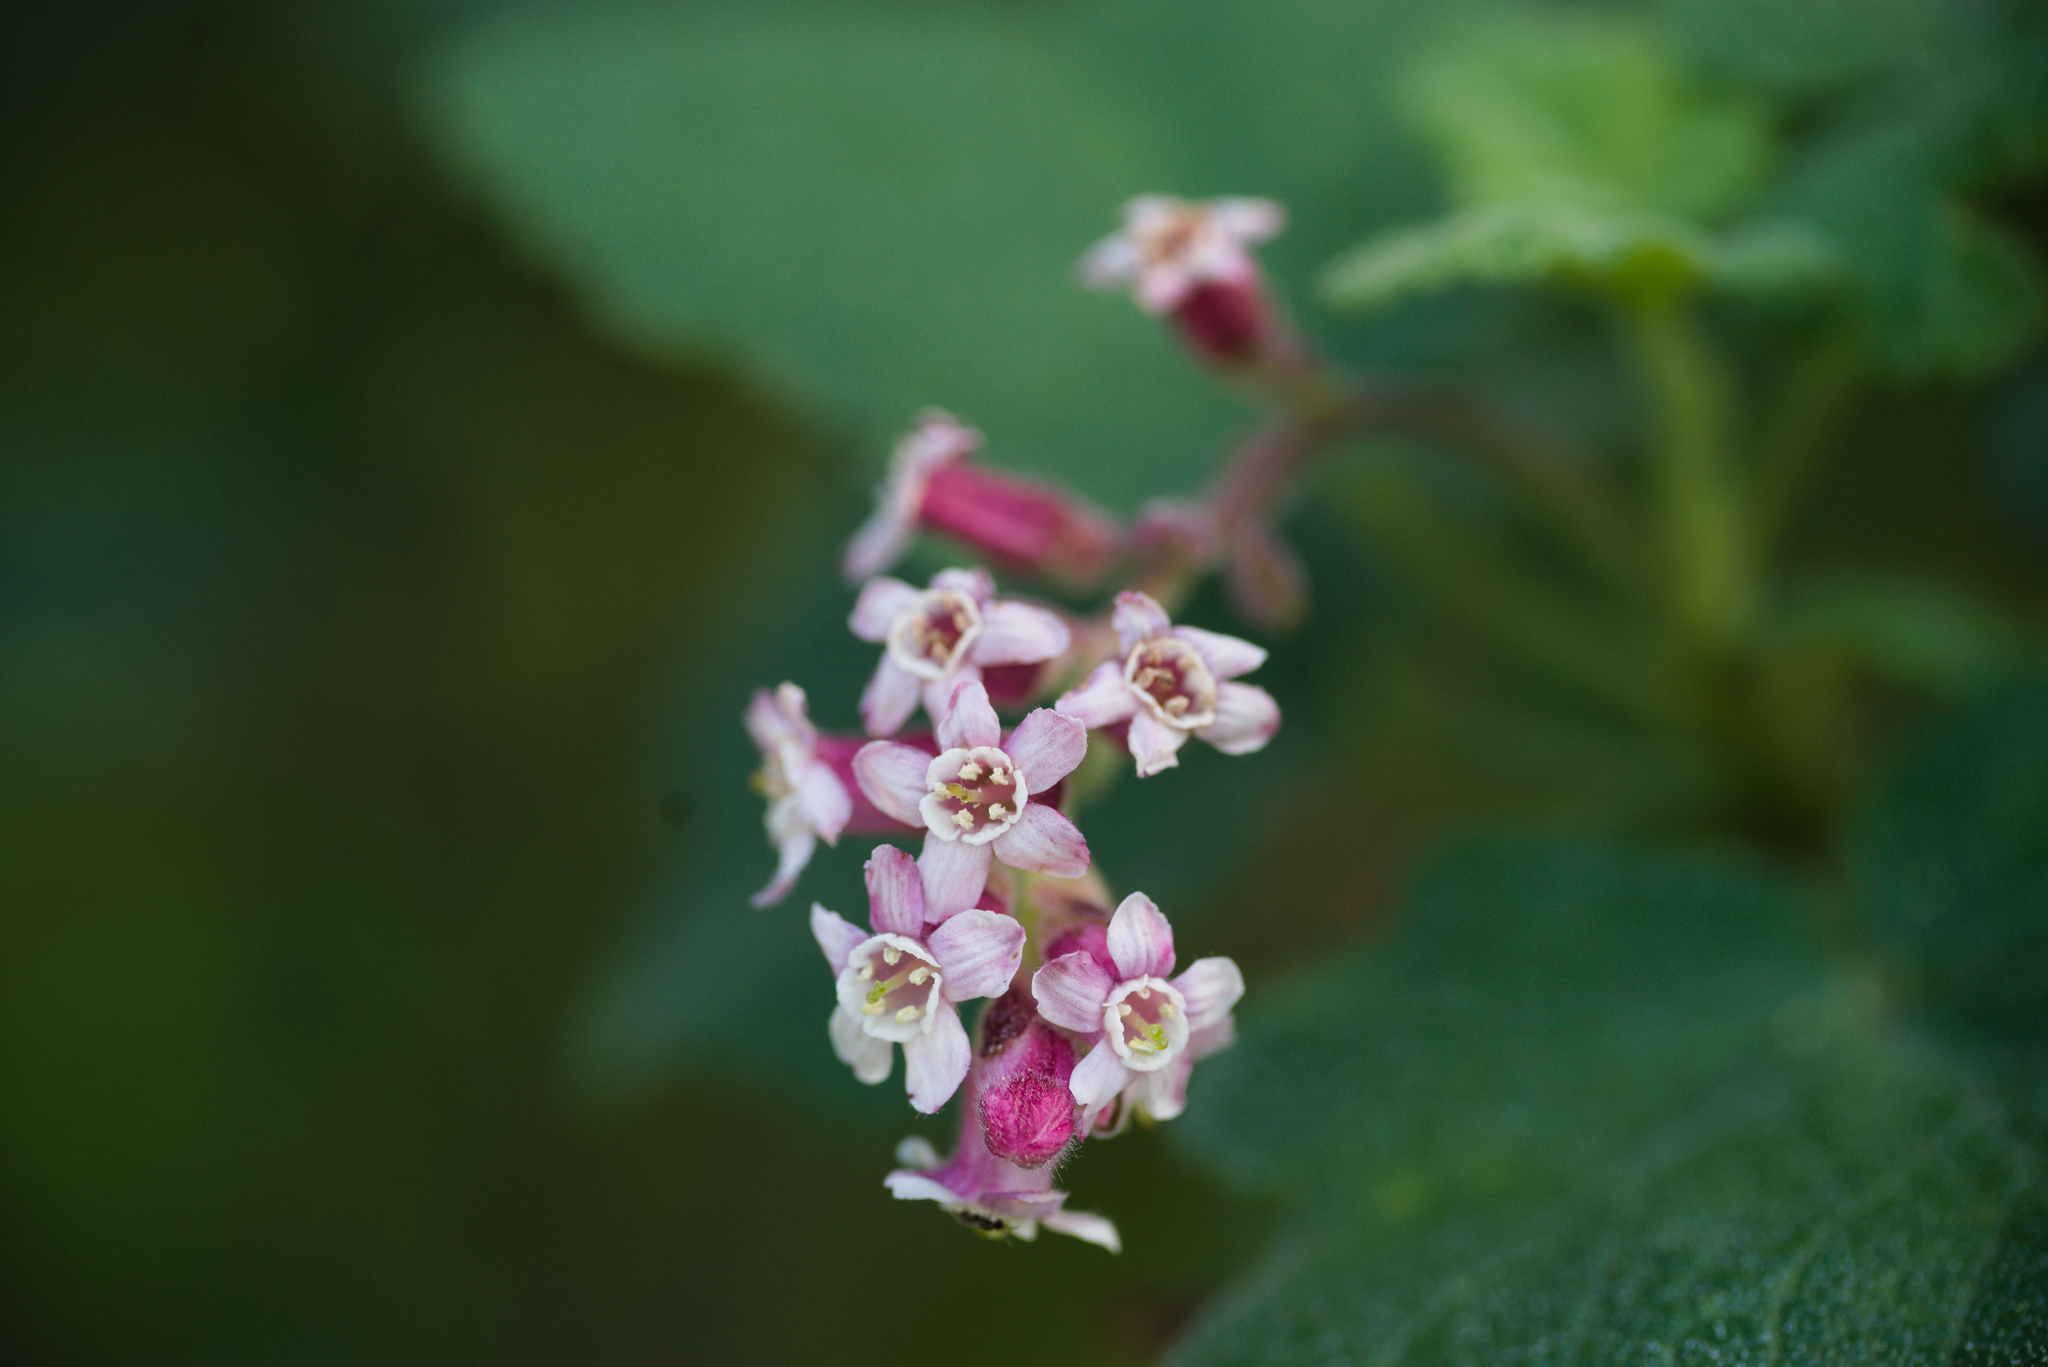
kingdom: Plantae
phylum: Tracheophyta
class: Magnoliopsida
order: Saxifragales
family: Grossulariaceae
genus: Ribes
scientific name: Ribes malvaceum
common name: Chaparral currant
